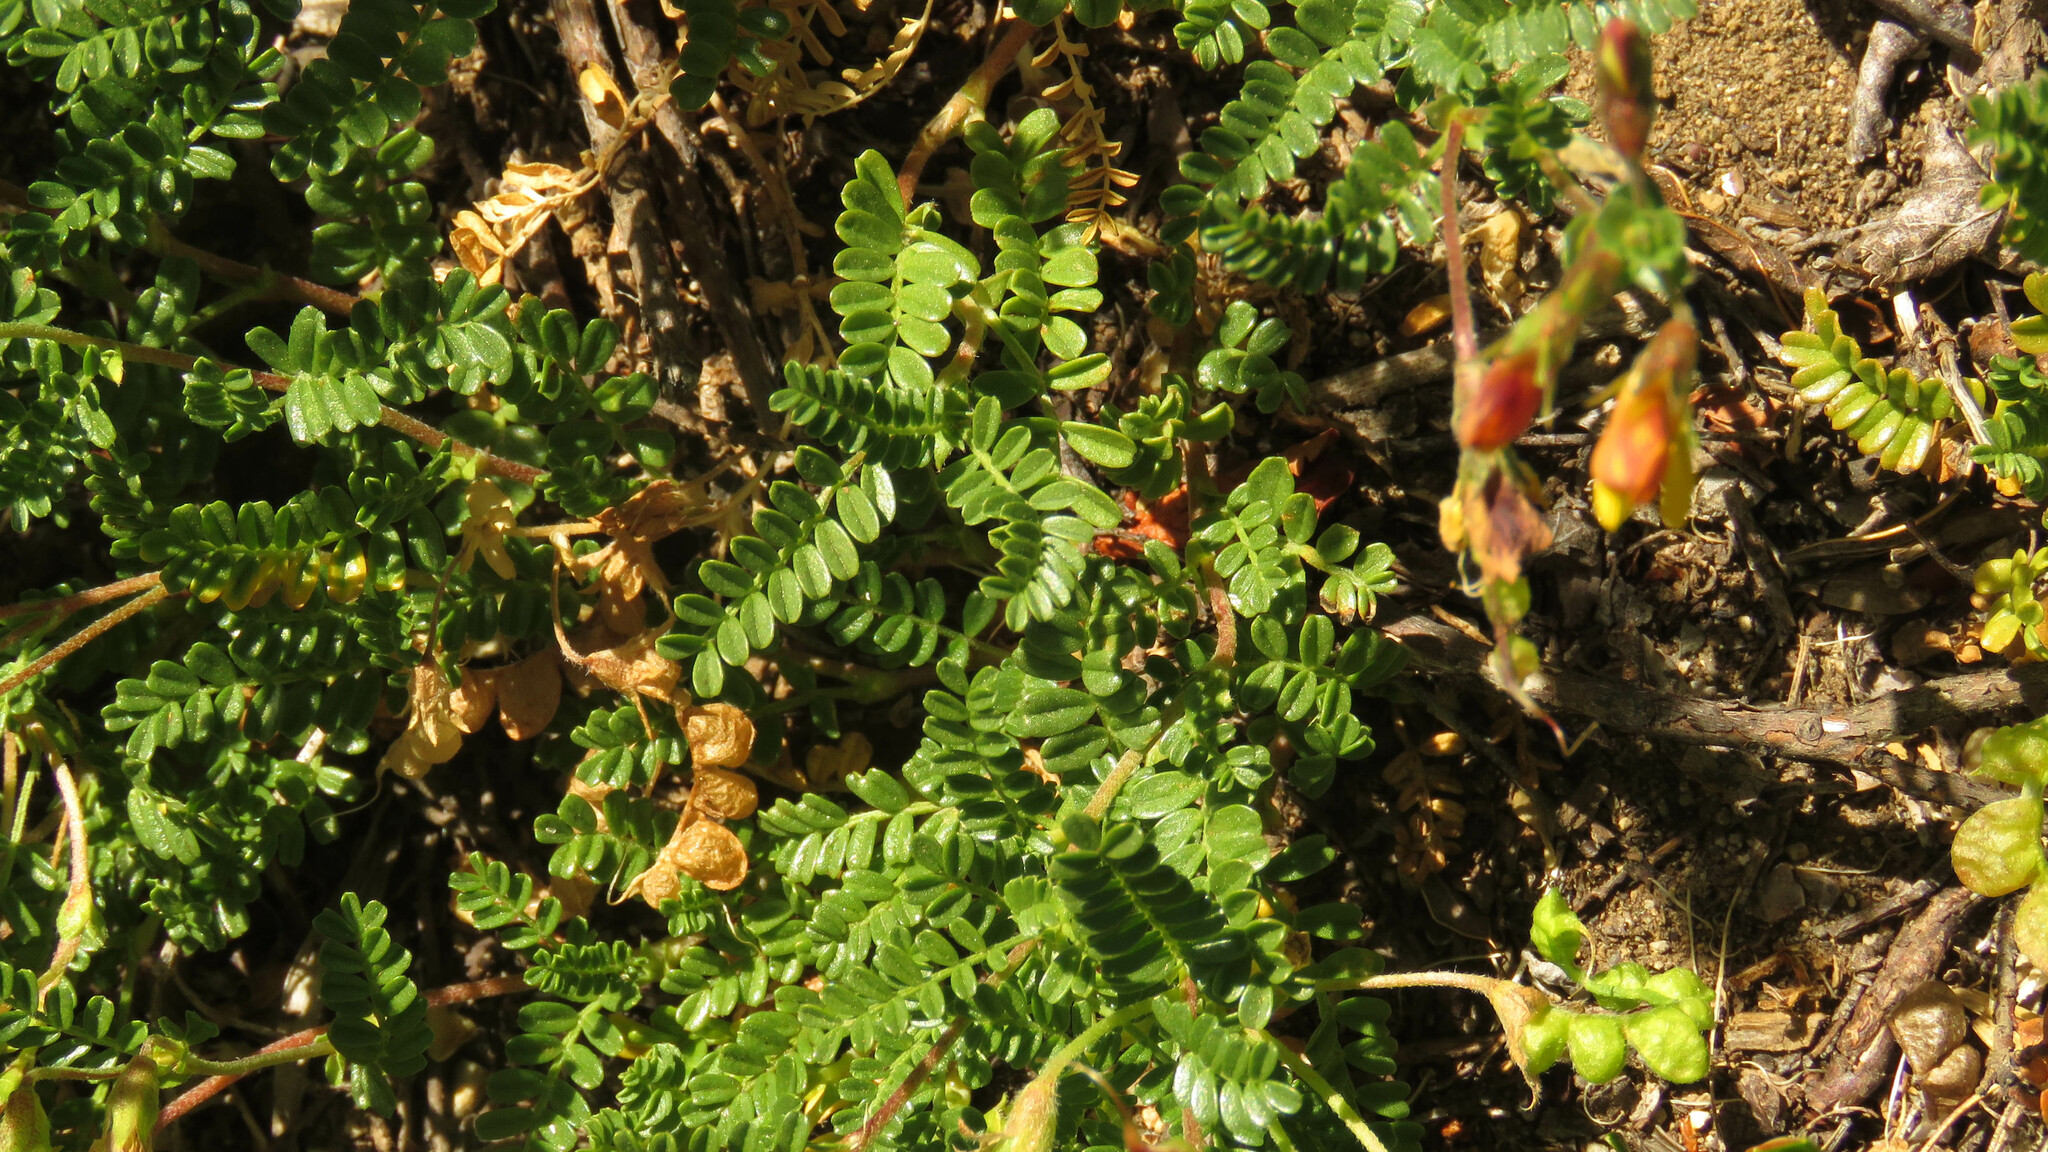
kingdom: Plantae
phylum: Tracheophyta
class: Magnoliopsida
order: Fabales
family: Fabaceae
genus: Adesmia
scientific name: Adesmia retusa
